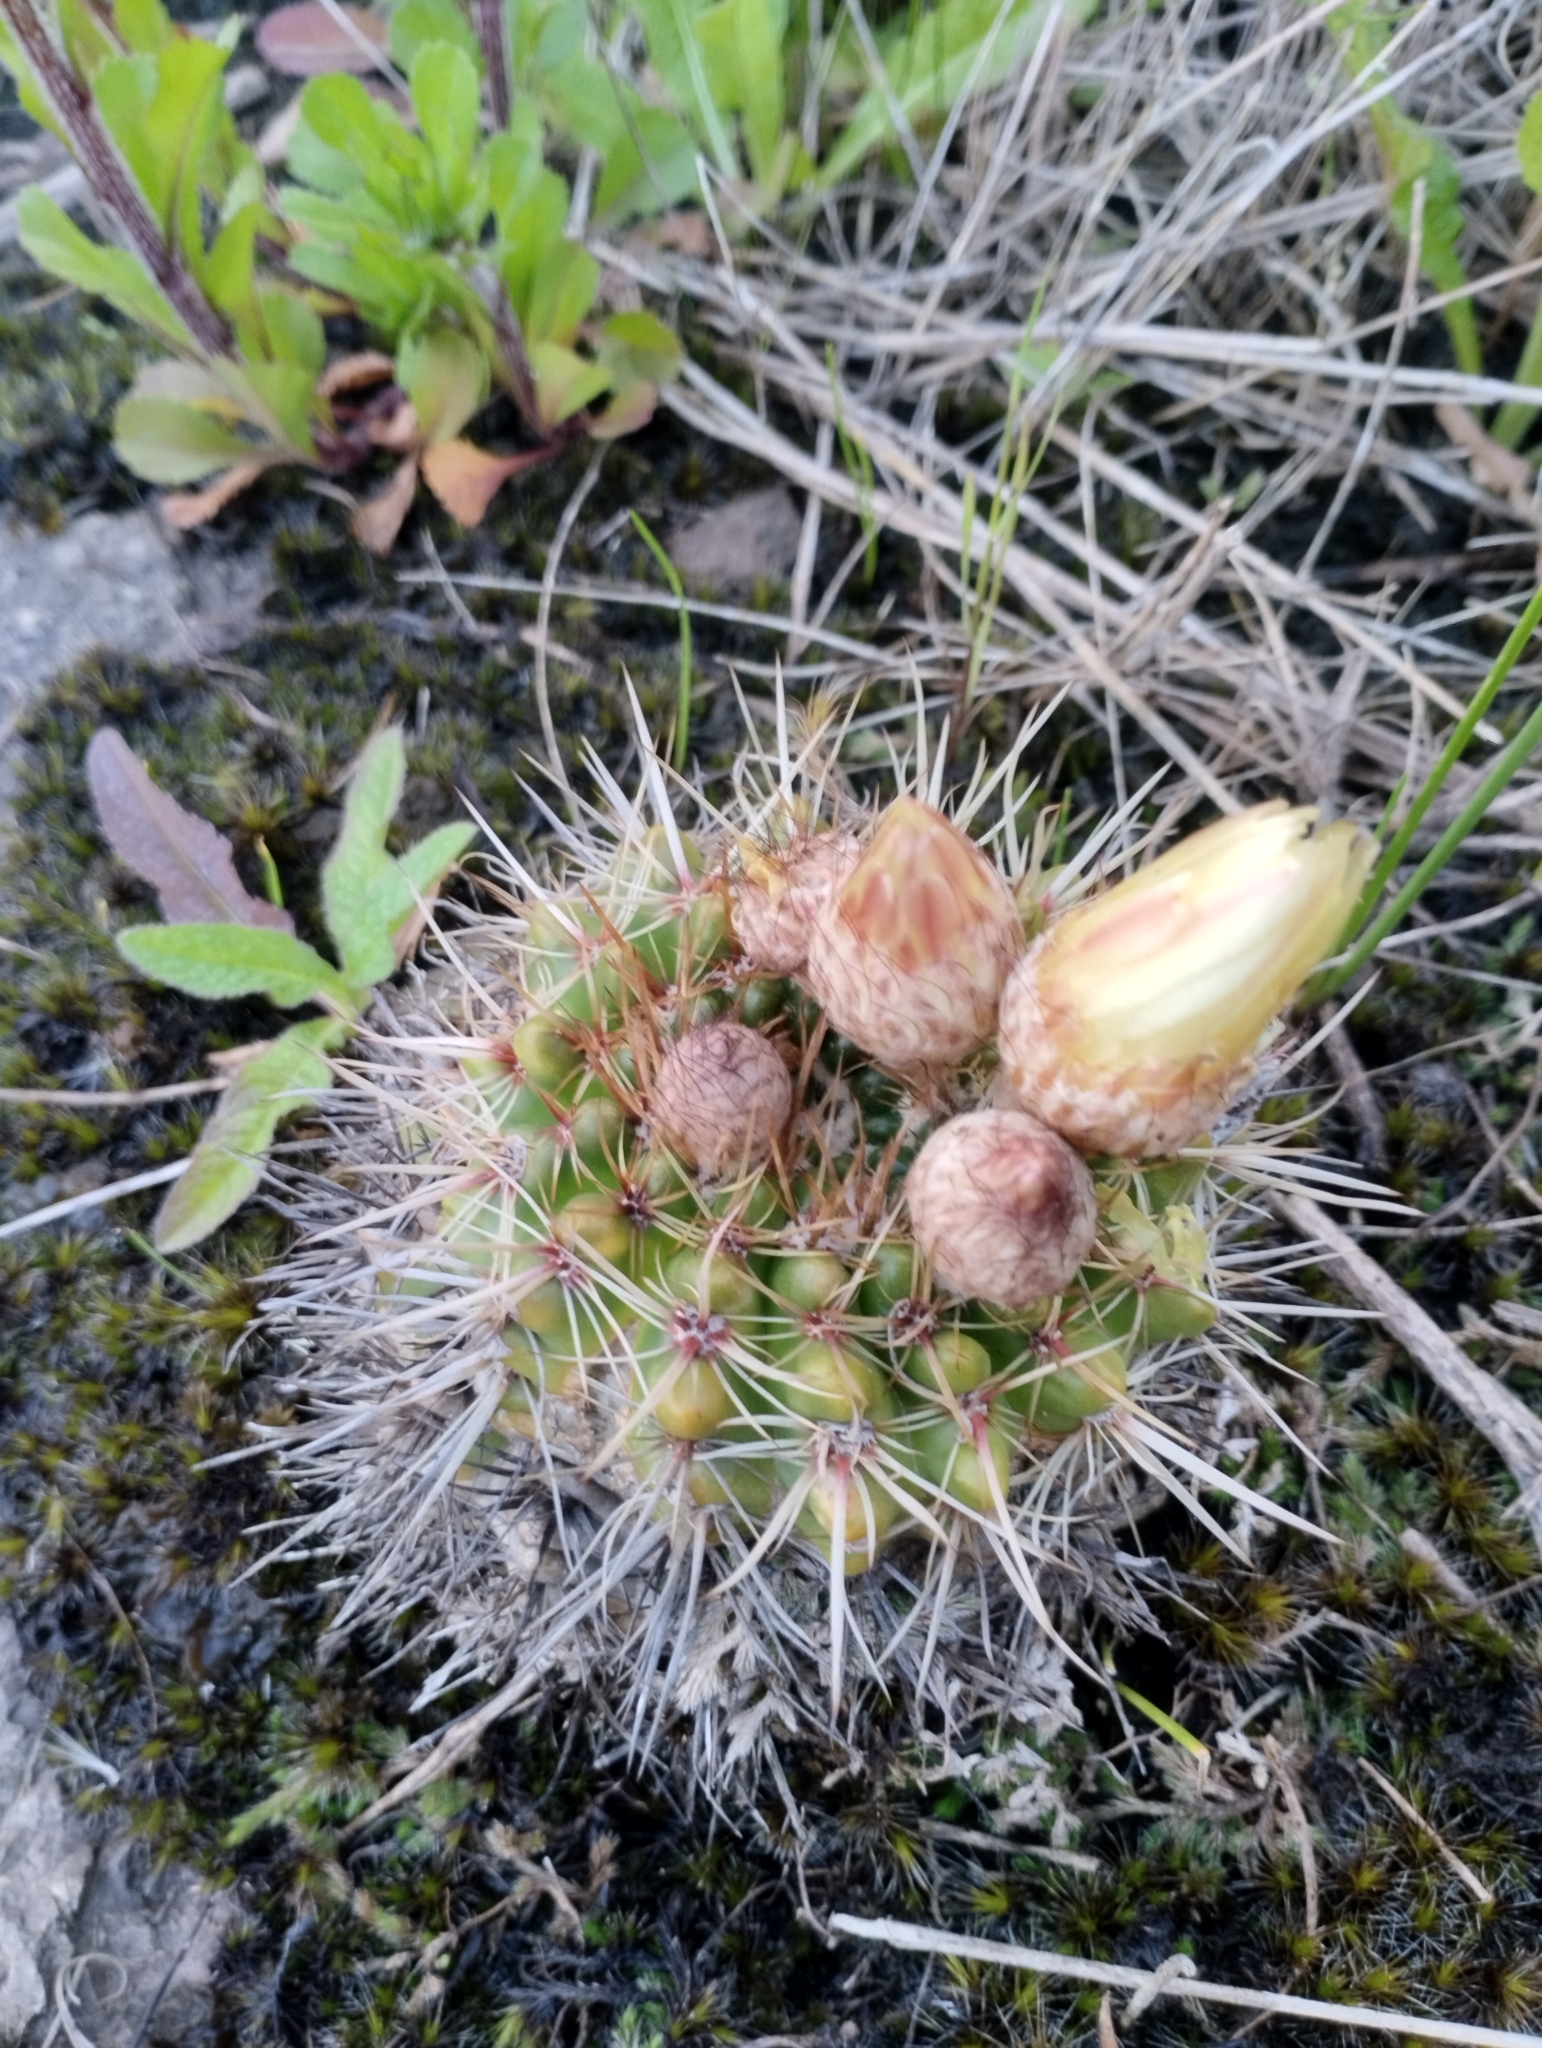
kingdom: Plantae
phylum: Tracheophyta
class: Magnoliopsida
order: Caryophyllales
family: Cactaceae
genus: Parodia
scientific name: Parodia mammulosa
